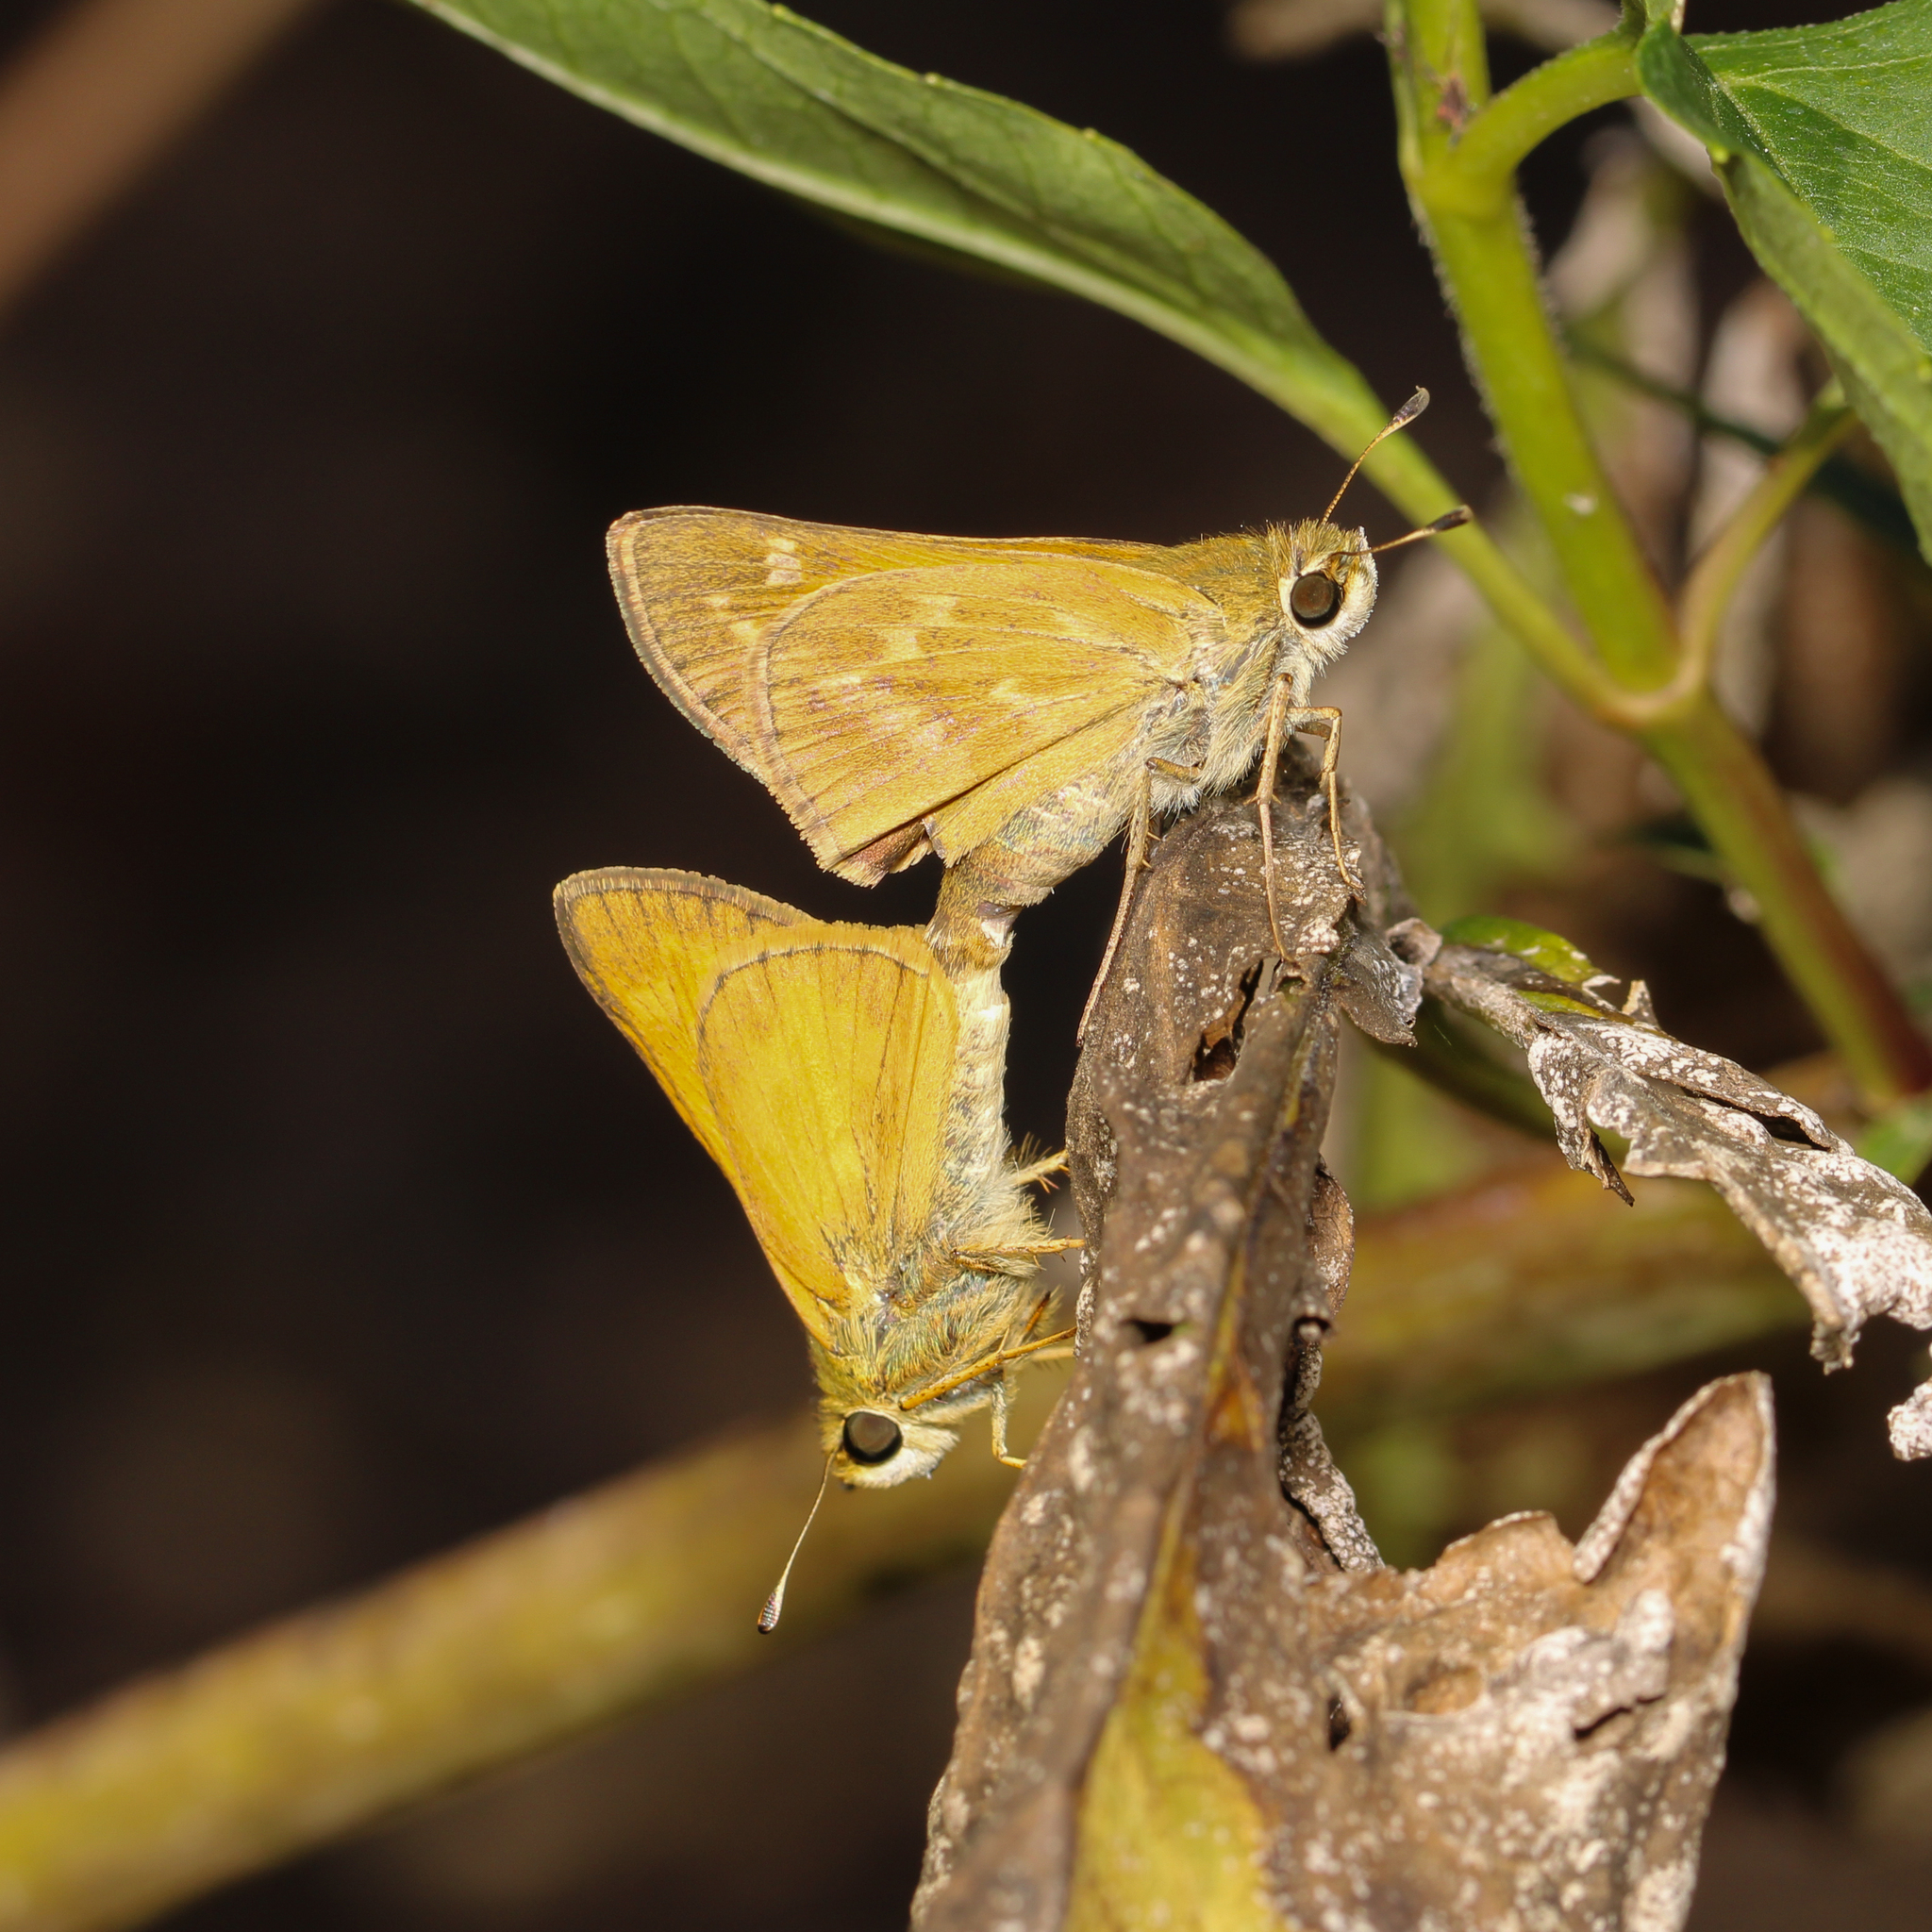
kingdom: Animalia
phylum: Arthropoda
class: Insecta
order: Lepidoptera
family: Hesperiidae
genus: Atalopedes
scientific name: Atalopedes
